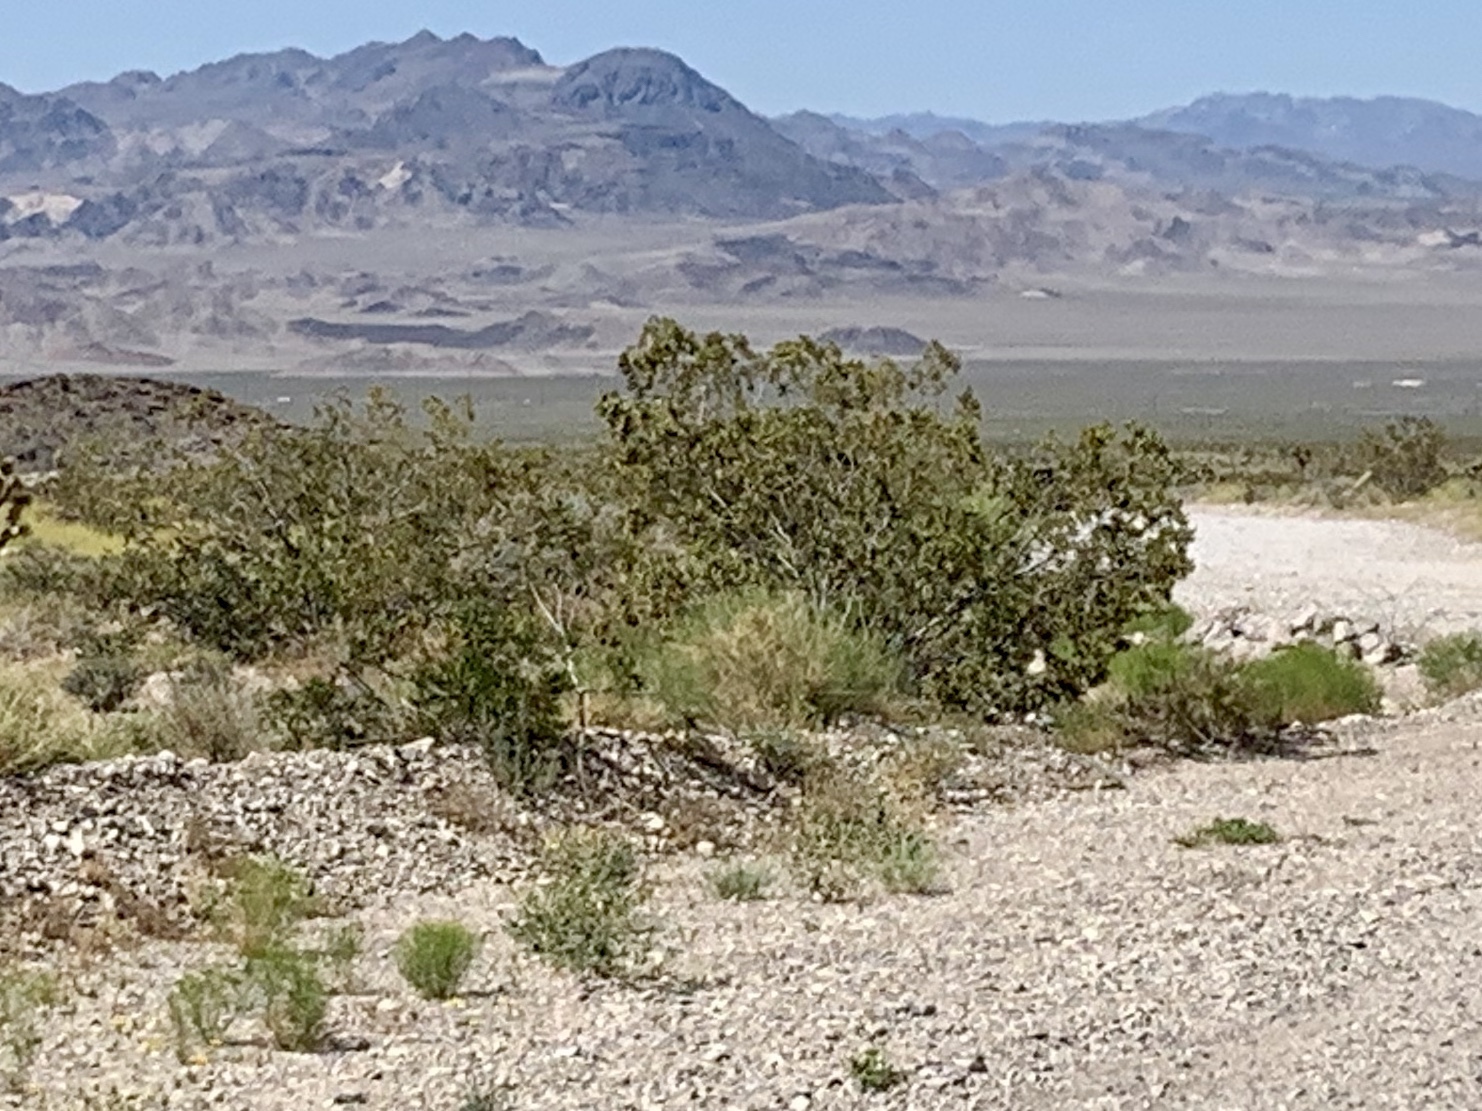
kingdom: Plantae
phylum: Tracheophyta
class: Magnoliopsida
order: Zygophyllales
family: Zygophyllaceae
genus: Larrea
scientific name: Larrea tridentata
